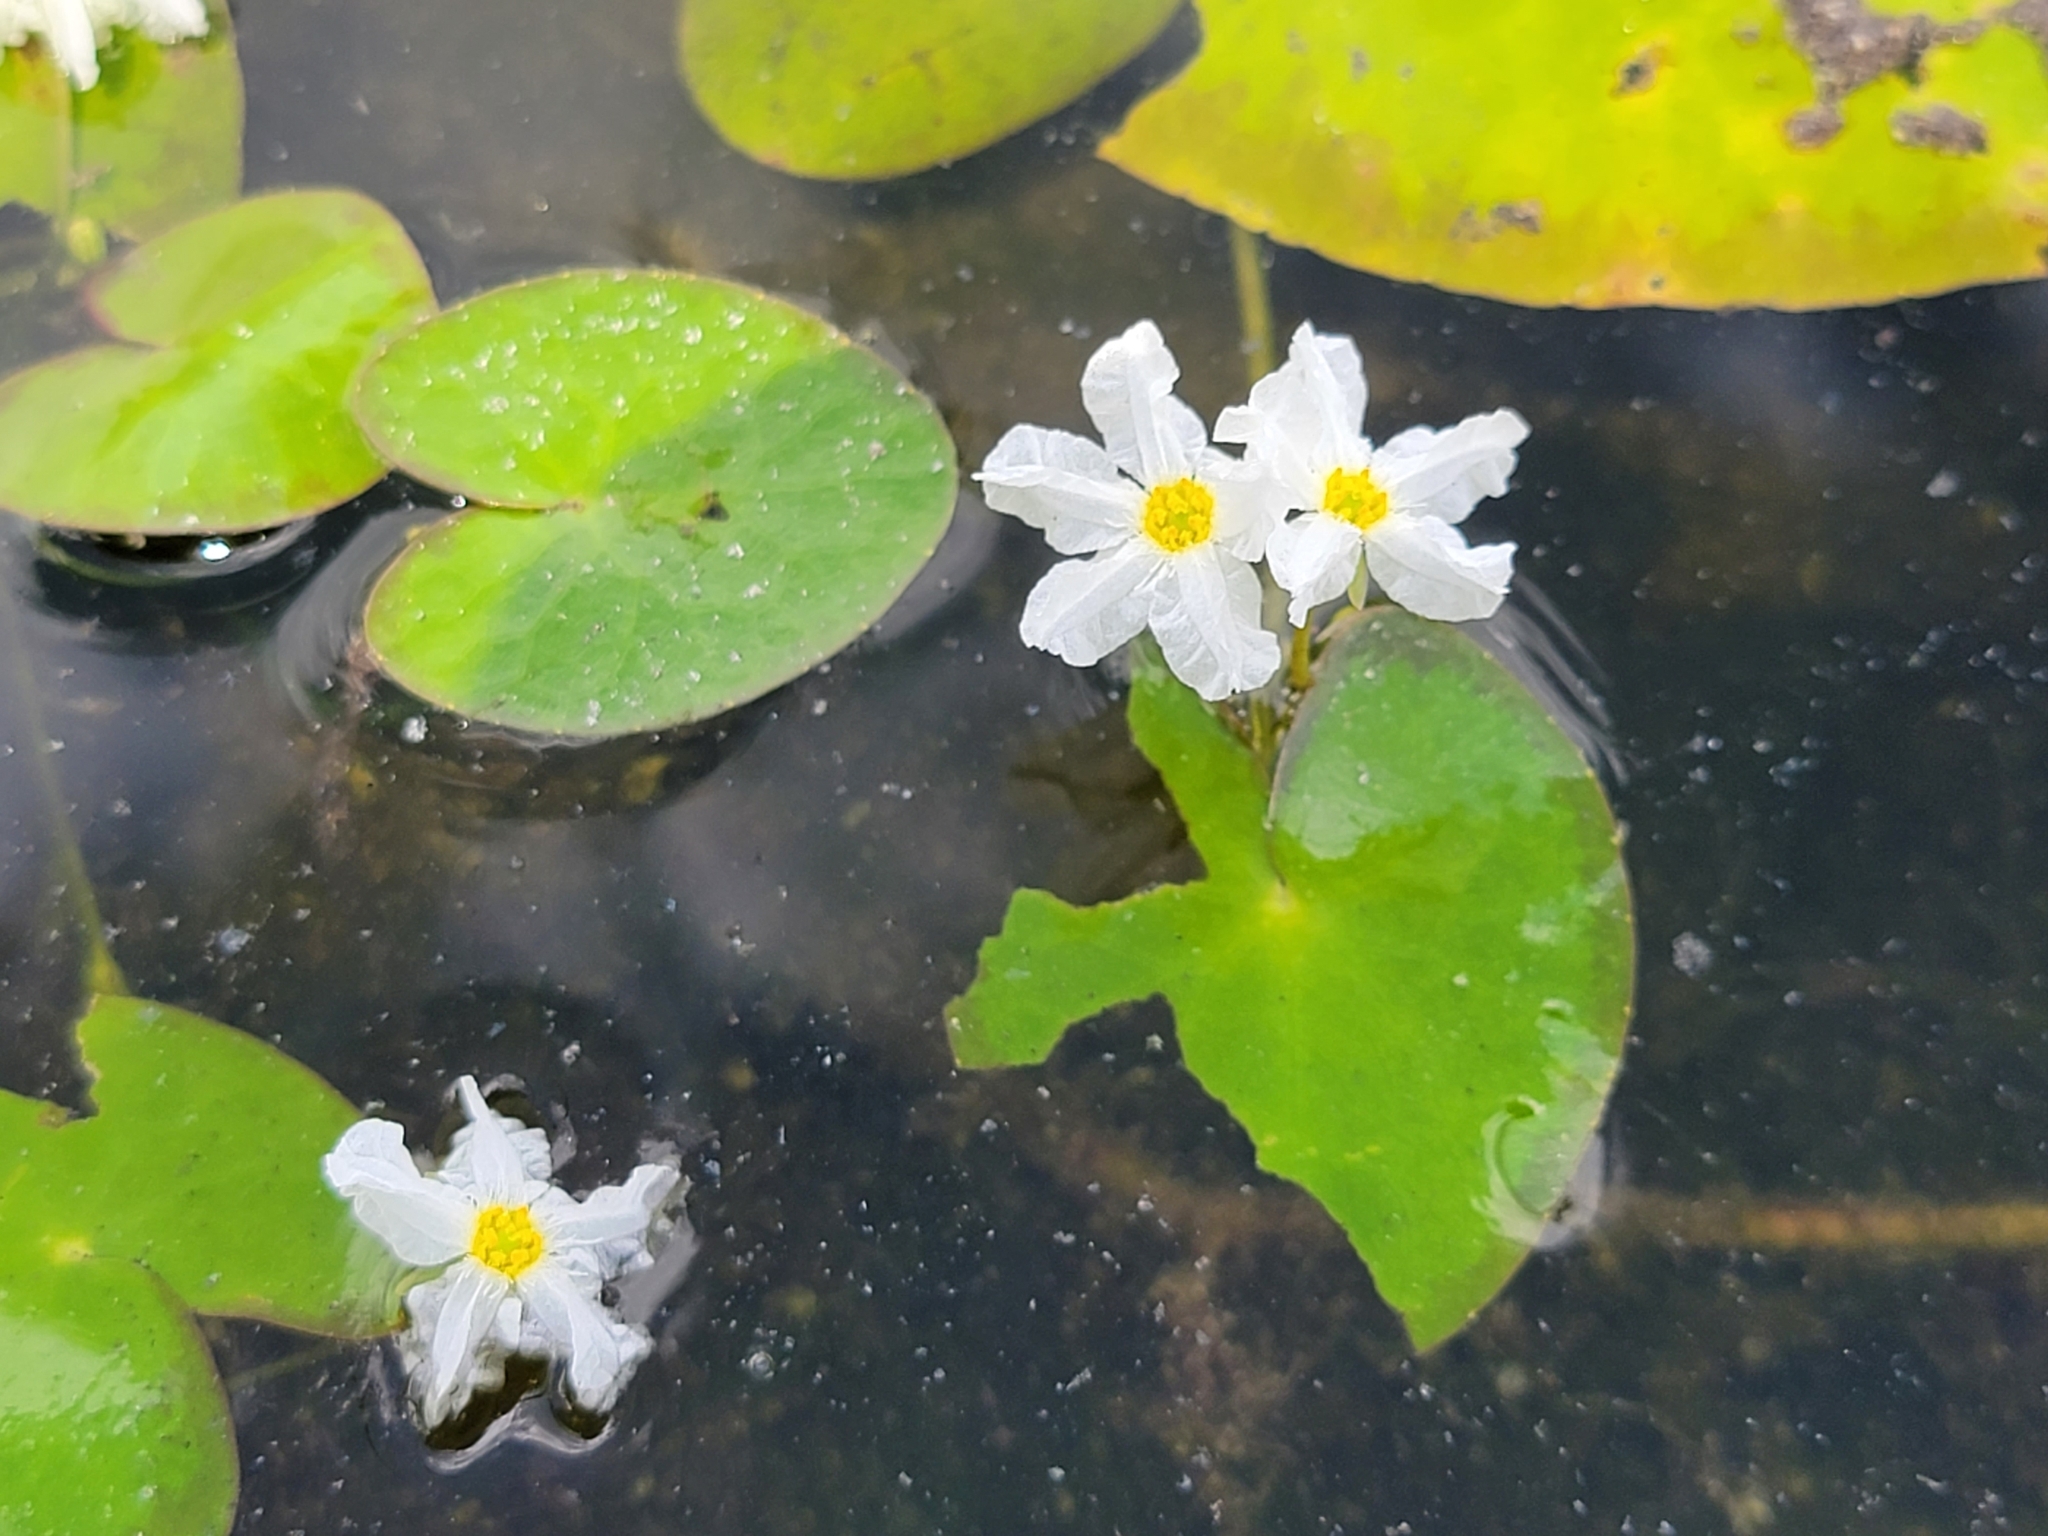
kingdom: Plantae
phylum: Tracheophyta
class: Magnoliopsida
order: Asterales
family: Menyanthaceae
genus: Nymphoides
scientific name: Nymphoides hydrophylla
